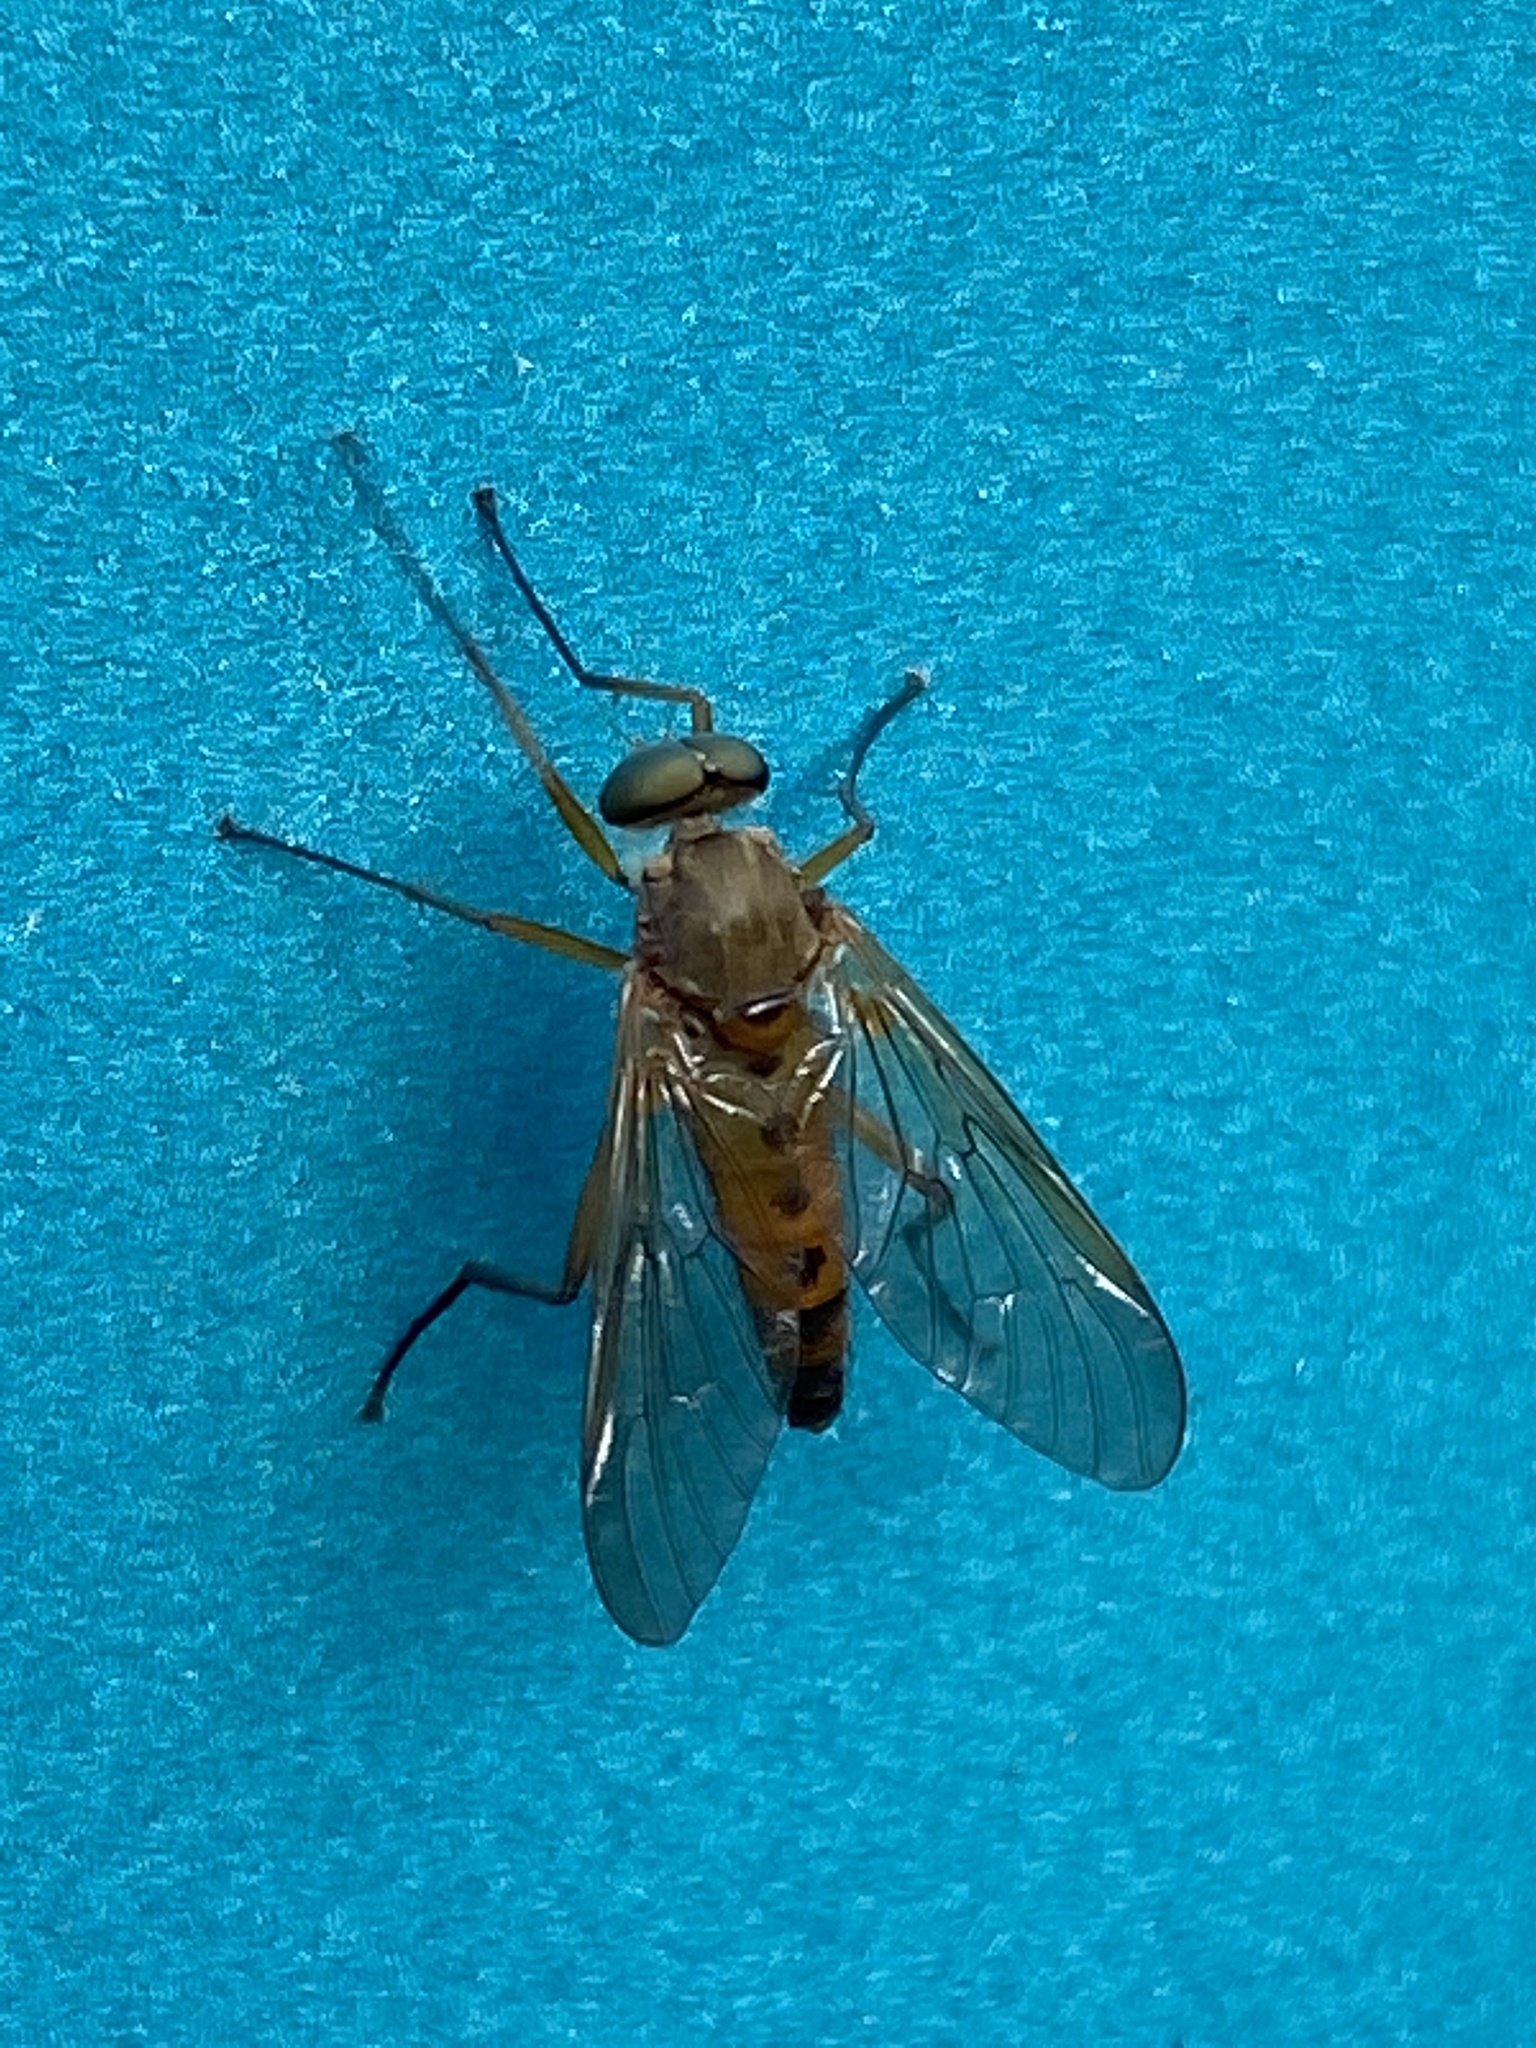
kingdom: Animalia
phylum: Arthropoda
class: Insecta
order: Diptera
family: Rhagionidae
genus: Rhagio
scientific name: Rhagio tringaria
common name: Marsh snipefly
